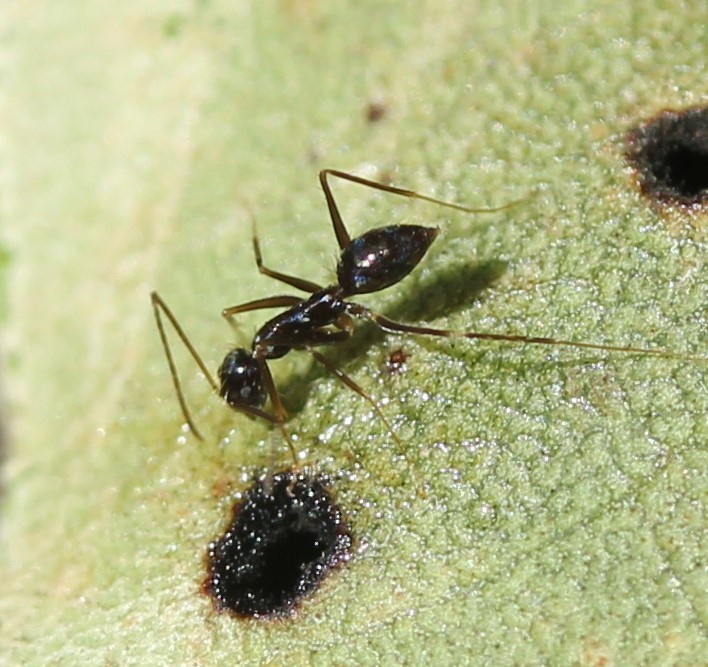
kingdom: Animalia
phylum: Arthropoda
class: Insecta
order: Hymenoptera
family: Formicidae
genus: Paratrechina
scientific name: Paratrechina longicornis
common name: Longhorned crazy ant
